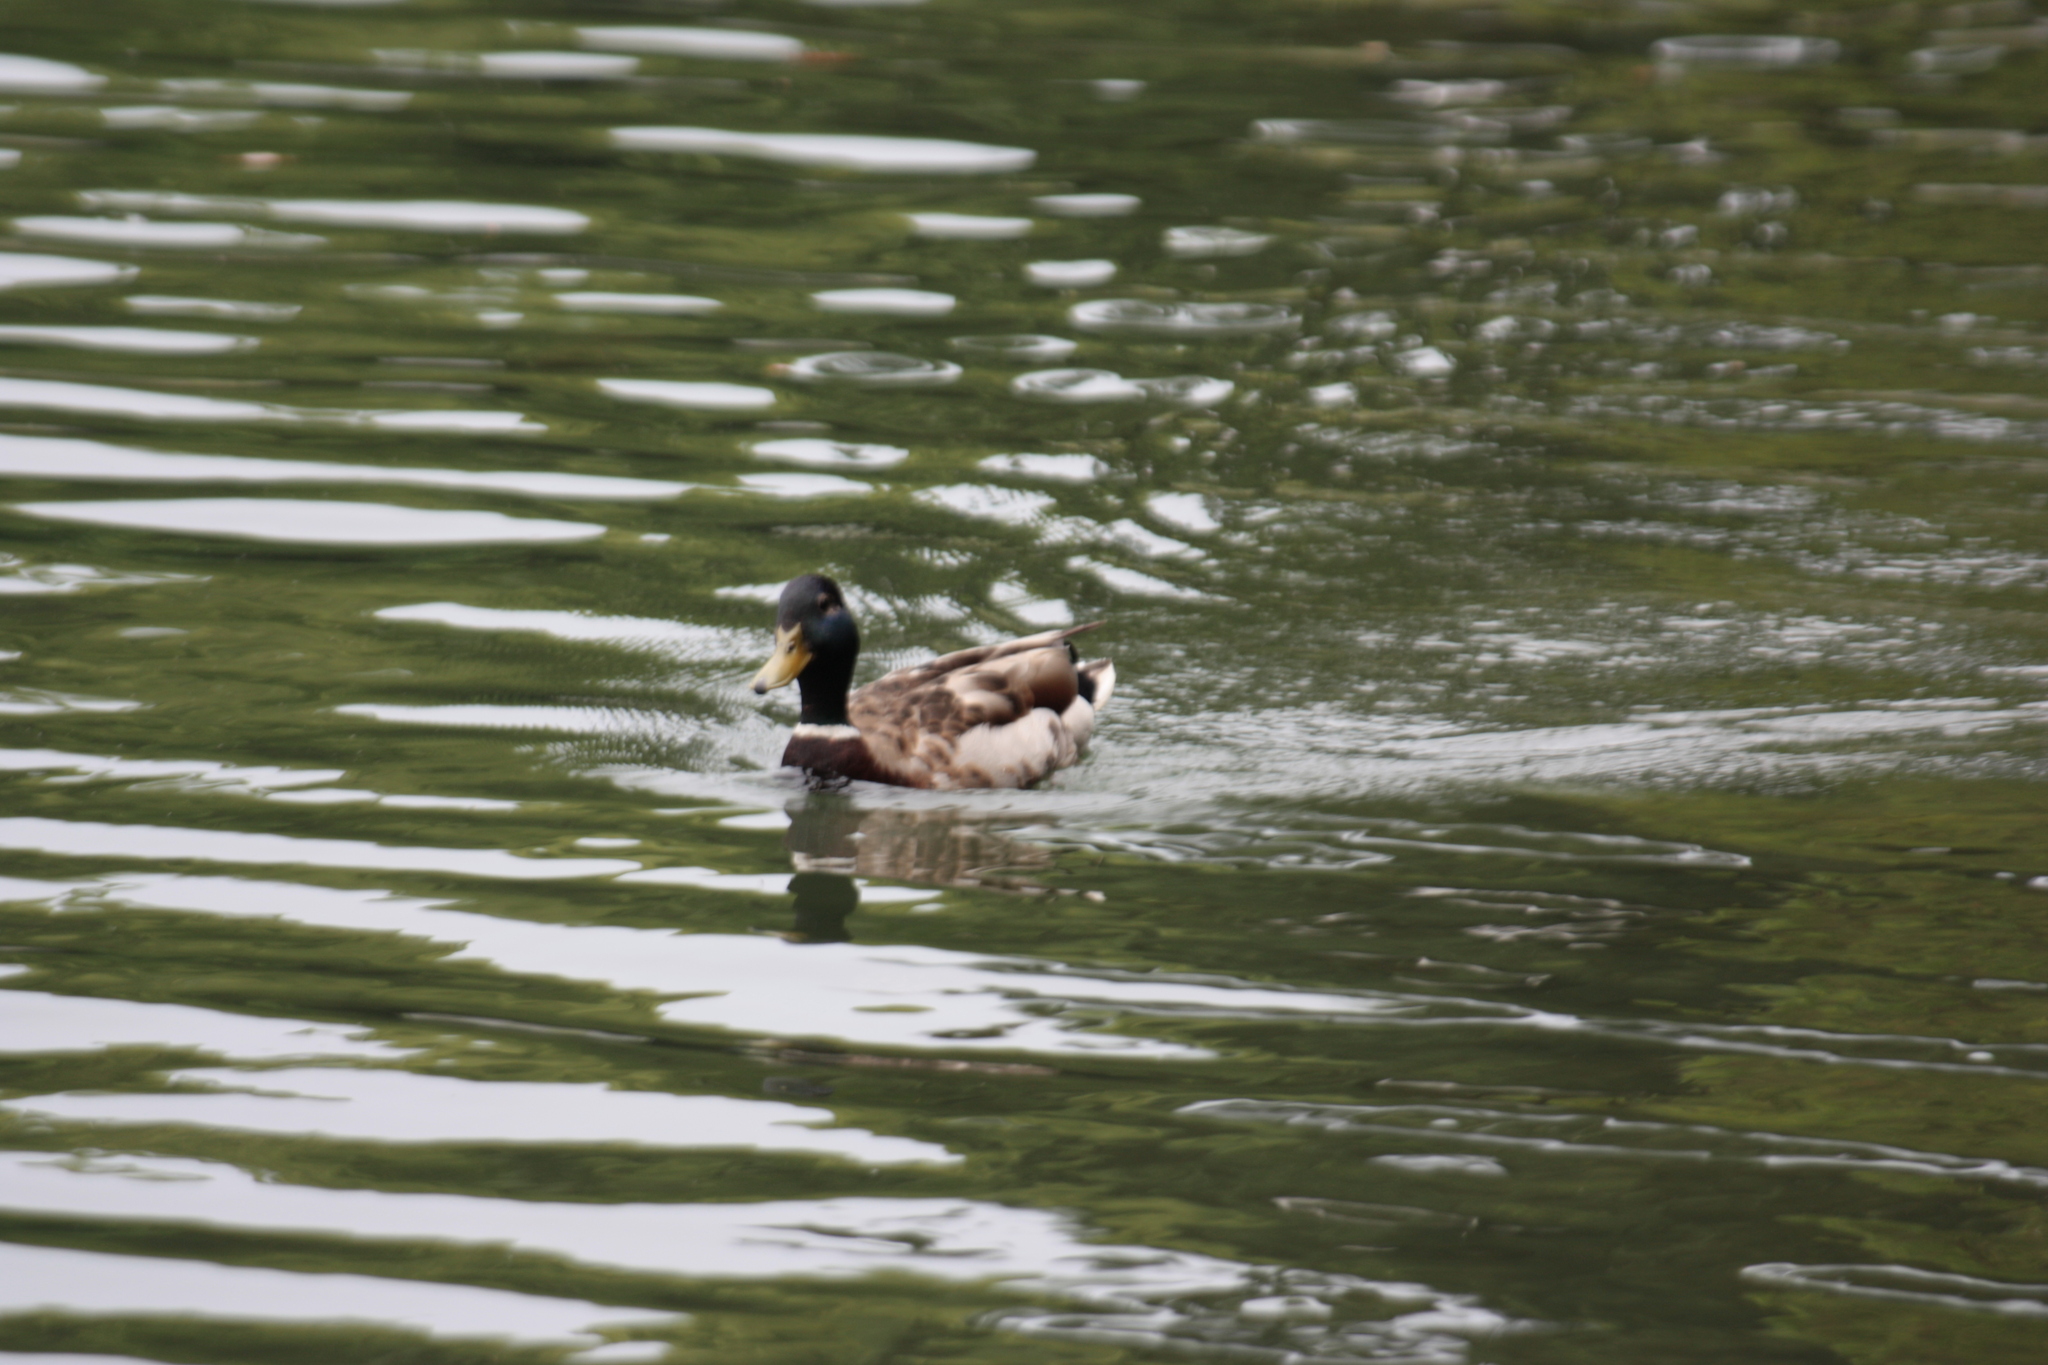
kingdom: Animalia
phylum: Chordata
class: Aves
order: Anseriformes
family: Anatidae
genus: Anas
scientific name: Anas platyrhynchos
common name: Mallard
